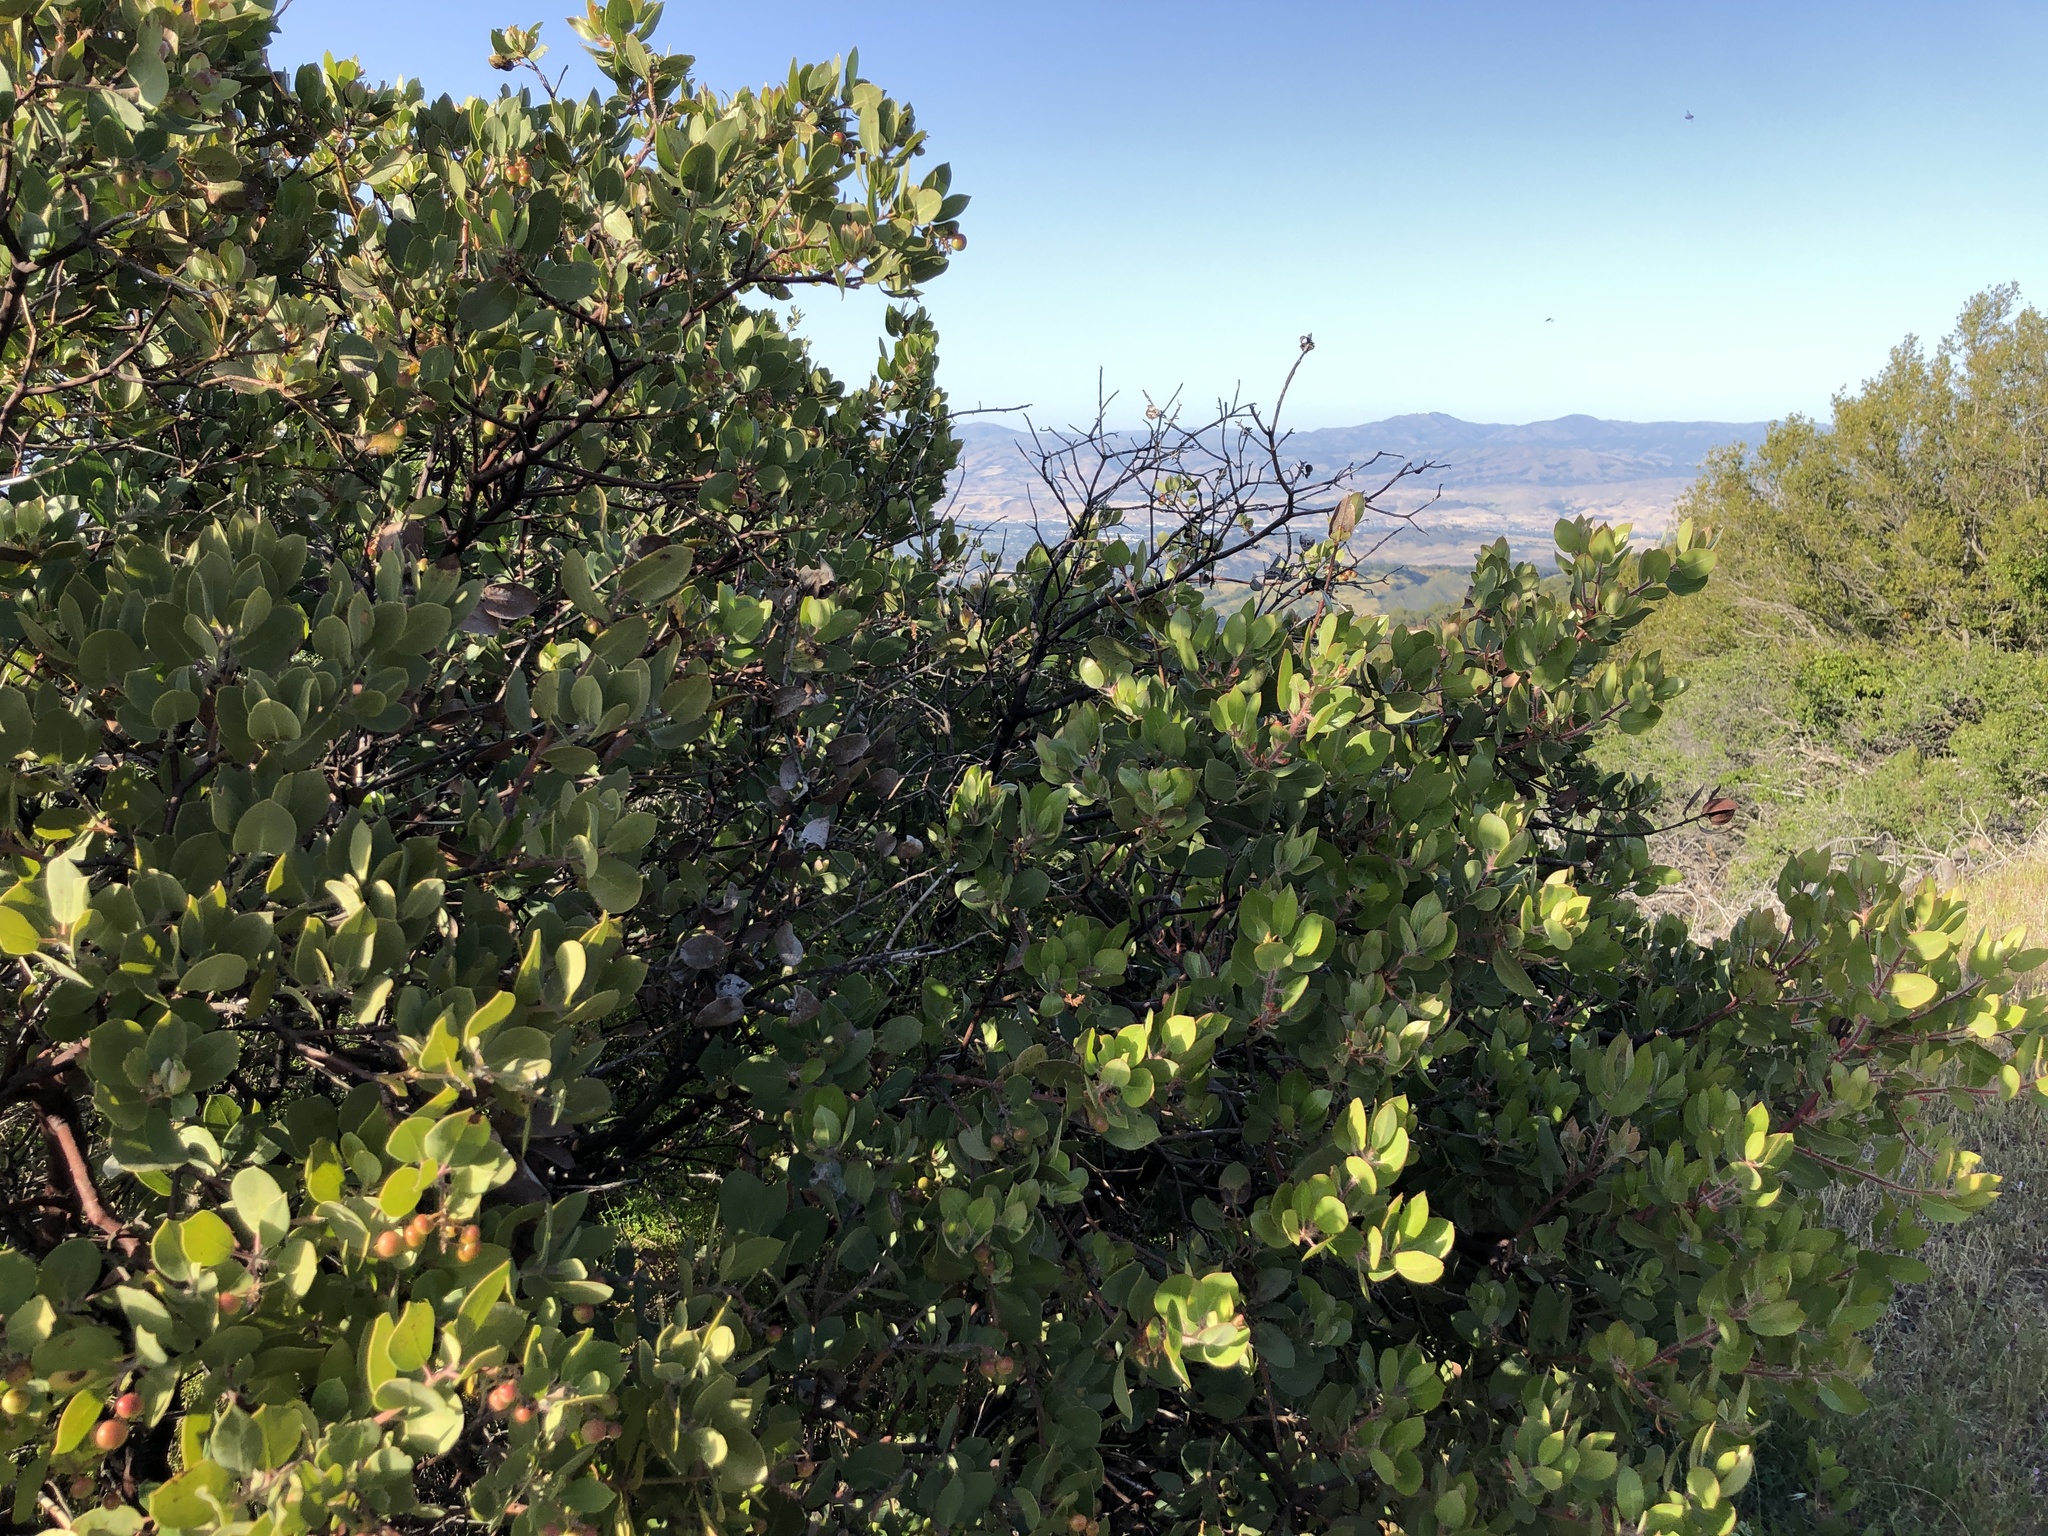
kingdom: Plantae
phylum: Tracheophyta
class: Magnoliopsida
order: Ericales
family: Ericaceae
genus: Arctostaphylos
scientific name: Arctostaphylos crustacea
